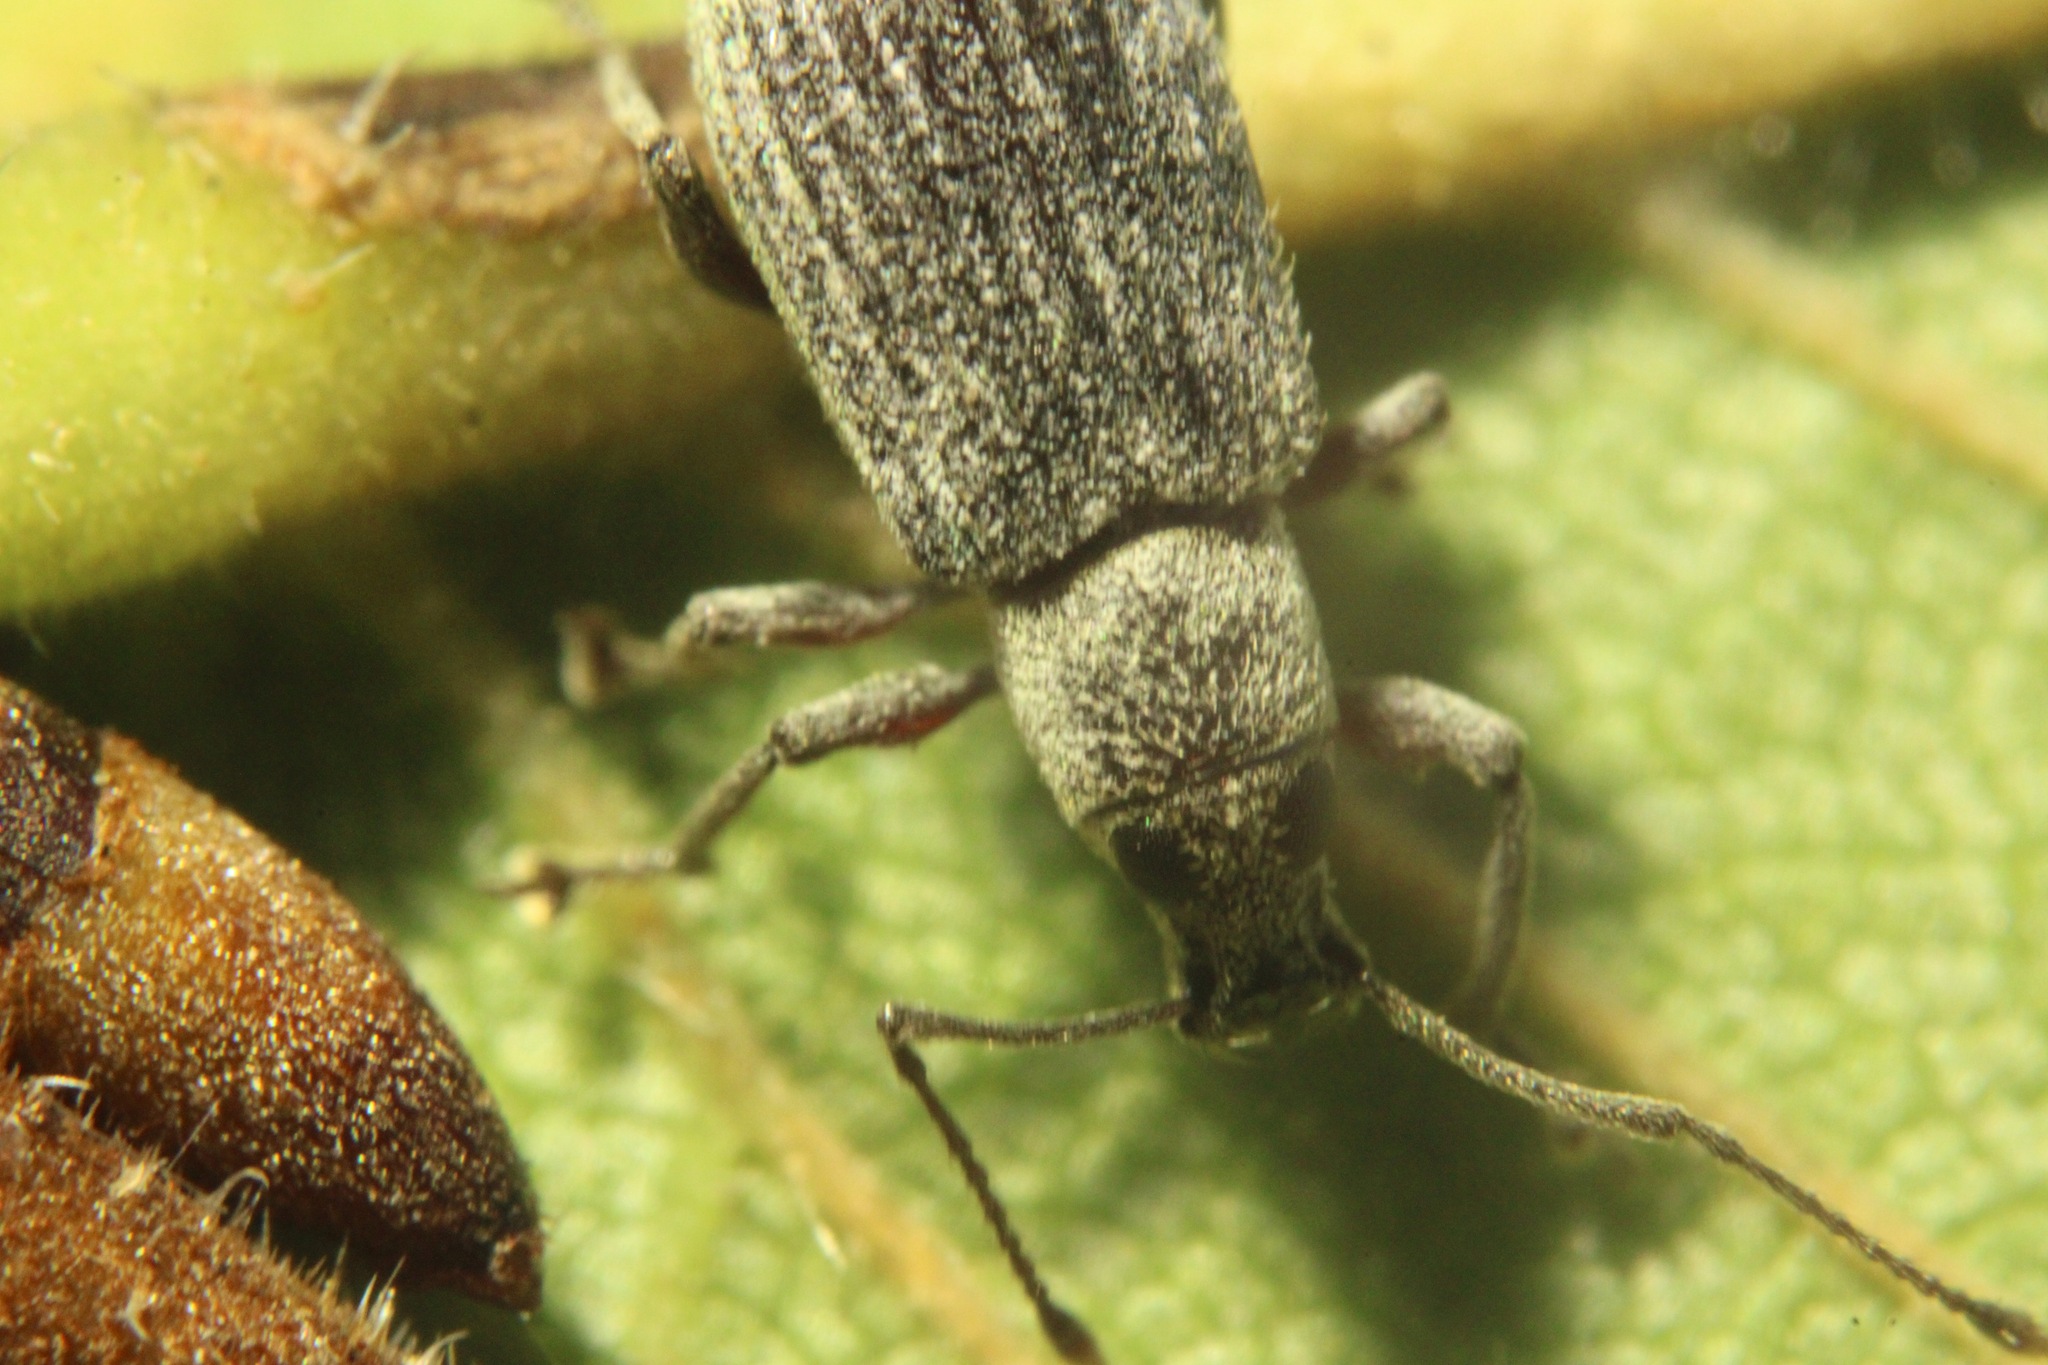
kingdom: Animalia
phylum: Arthropoda
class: Insecta
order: Coleoptera
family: Curculionidae
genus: Cyrtepistomus
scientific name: Cyrtepistomus castaneus
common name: Weevil
